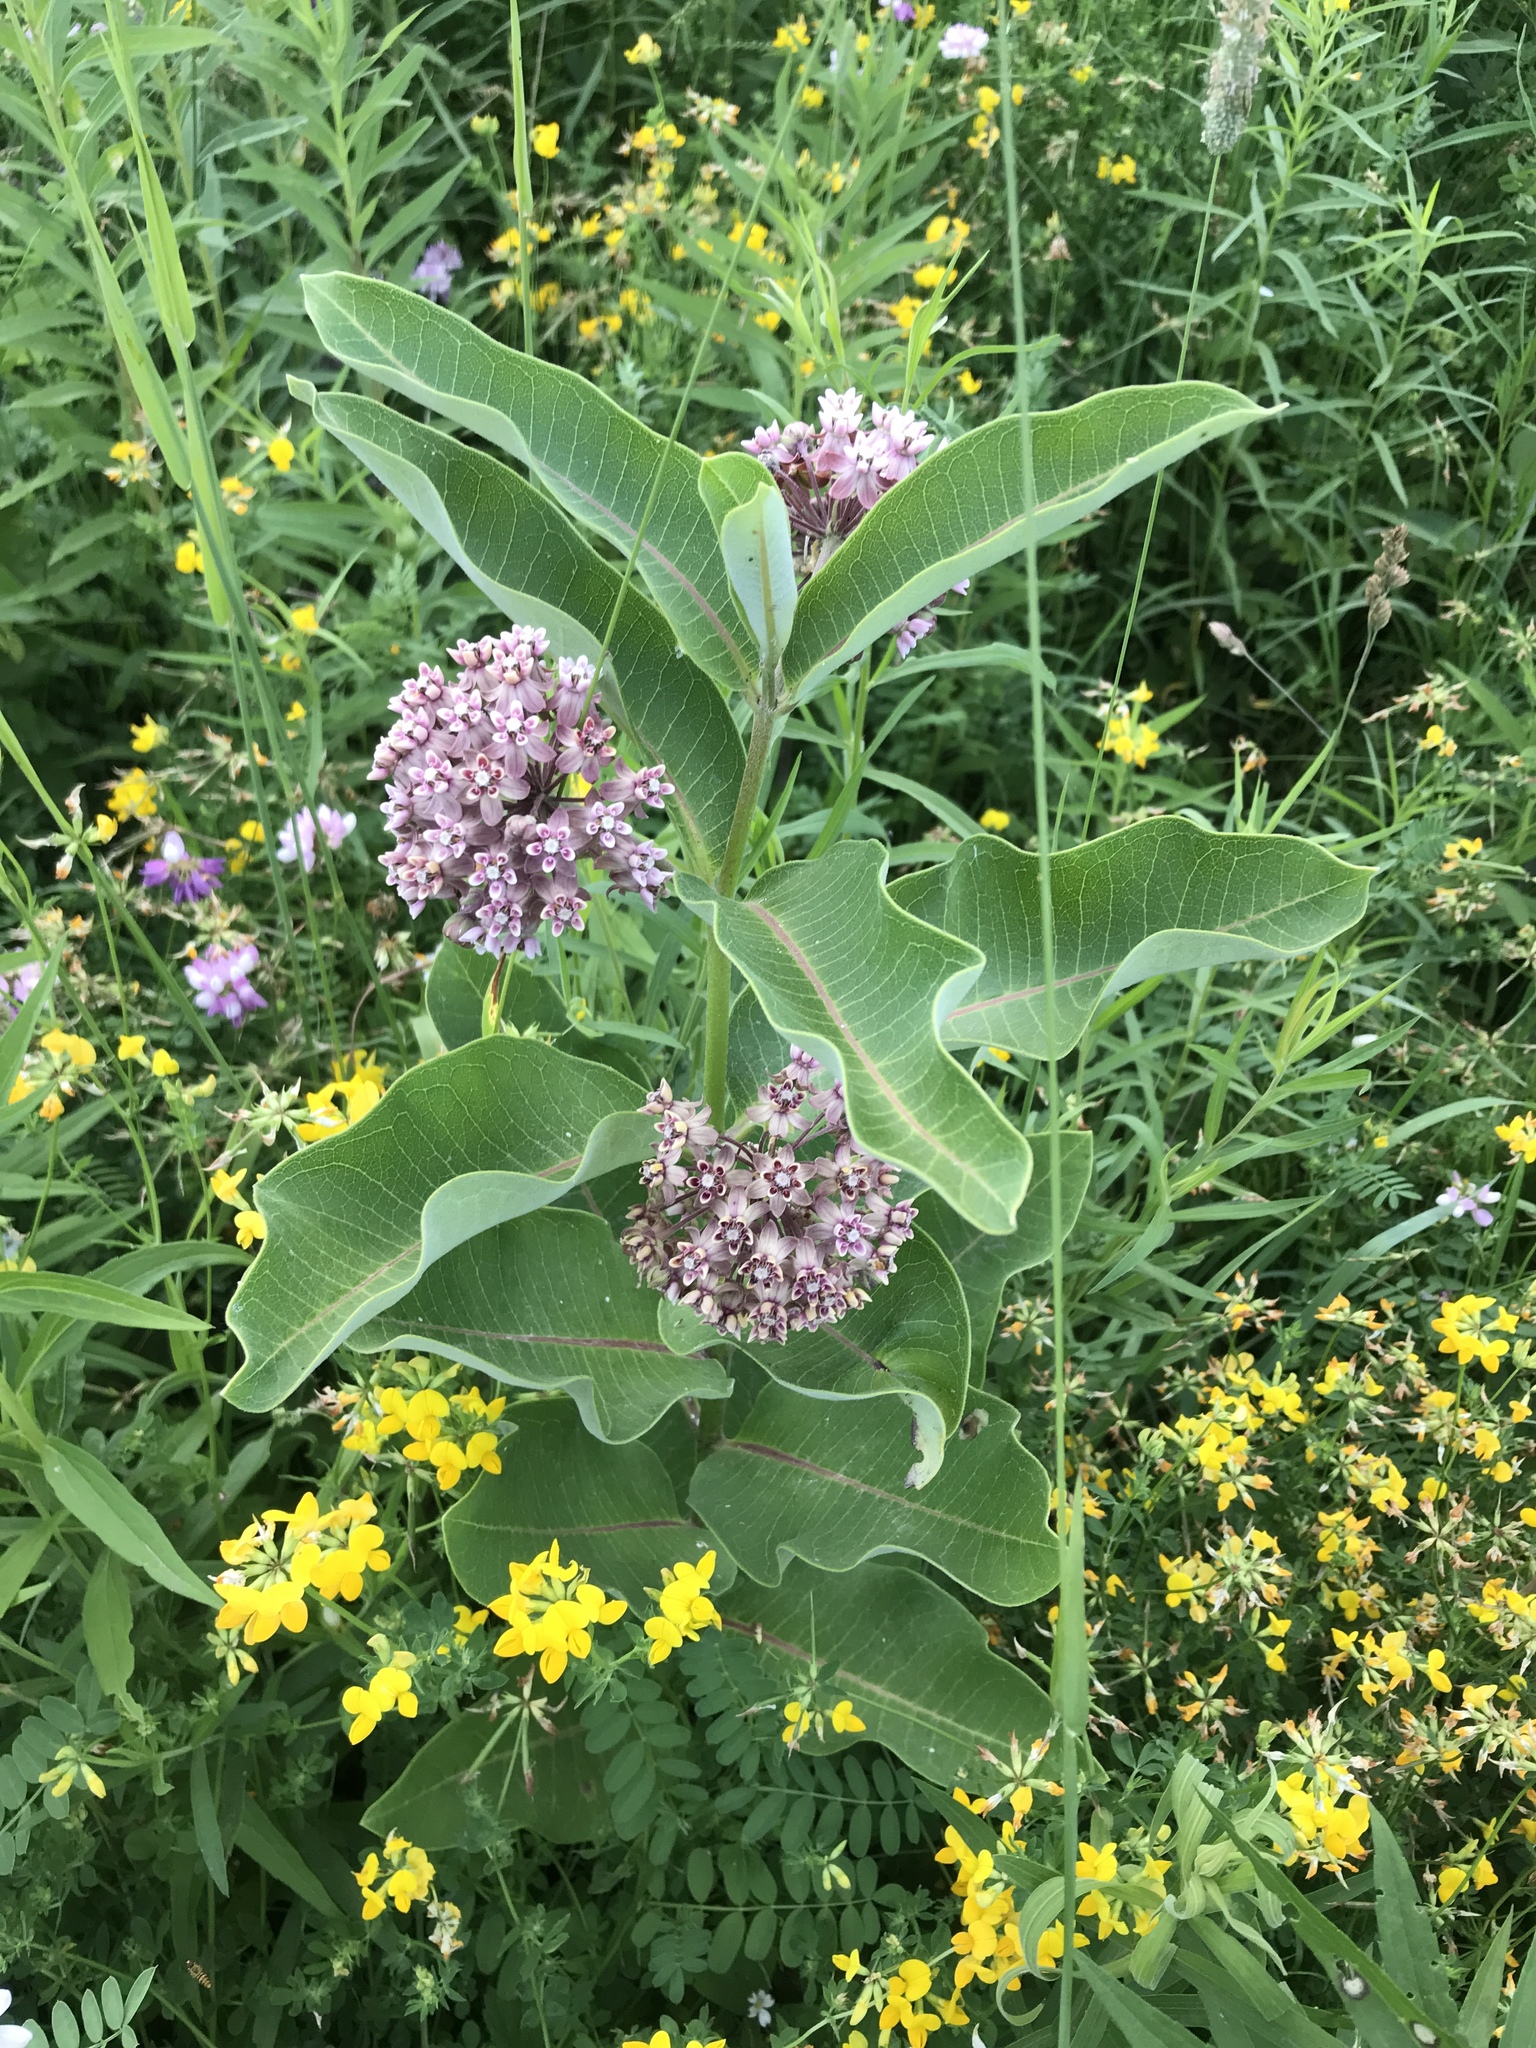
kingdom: Plantae
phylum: Tracheophyta
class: Magnoliopsida
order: Gentianales
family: Apocynaceae
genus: Asclepias
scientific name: Asclepias syriaca
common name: Common milkweed
